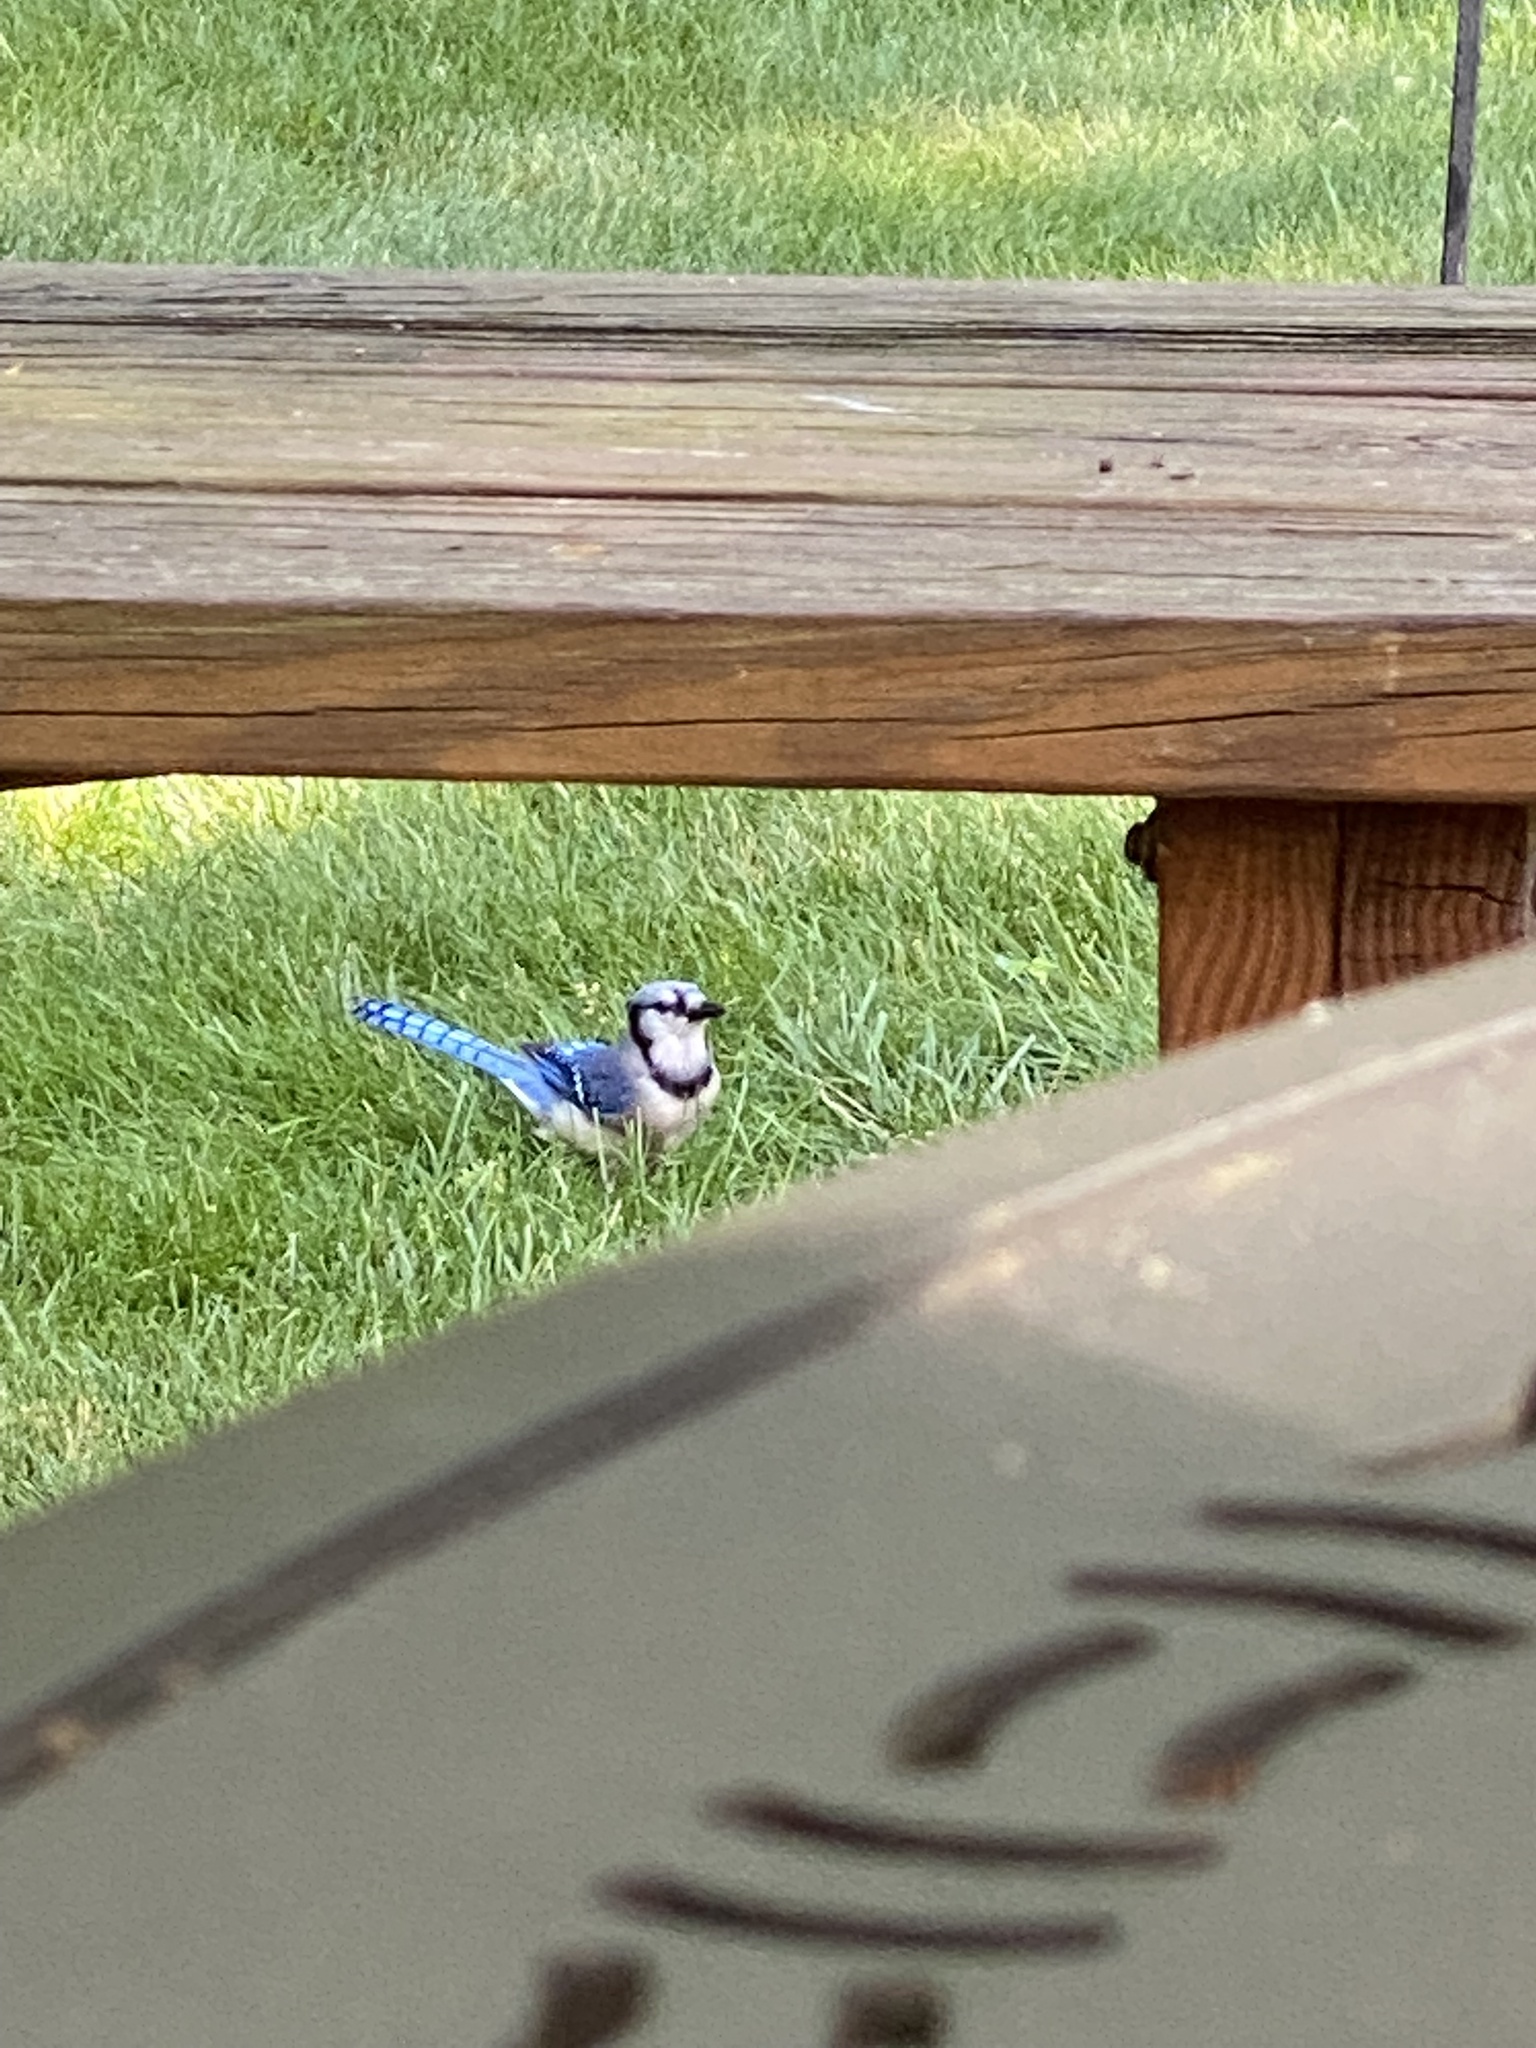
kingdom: Animalia
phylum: Chordata
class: Aves
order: Passeriformes
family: Corvidae
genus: Cyanocitta
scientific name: Cyanocitta cristata
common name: Blue jay
